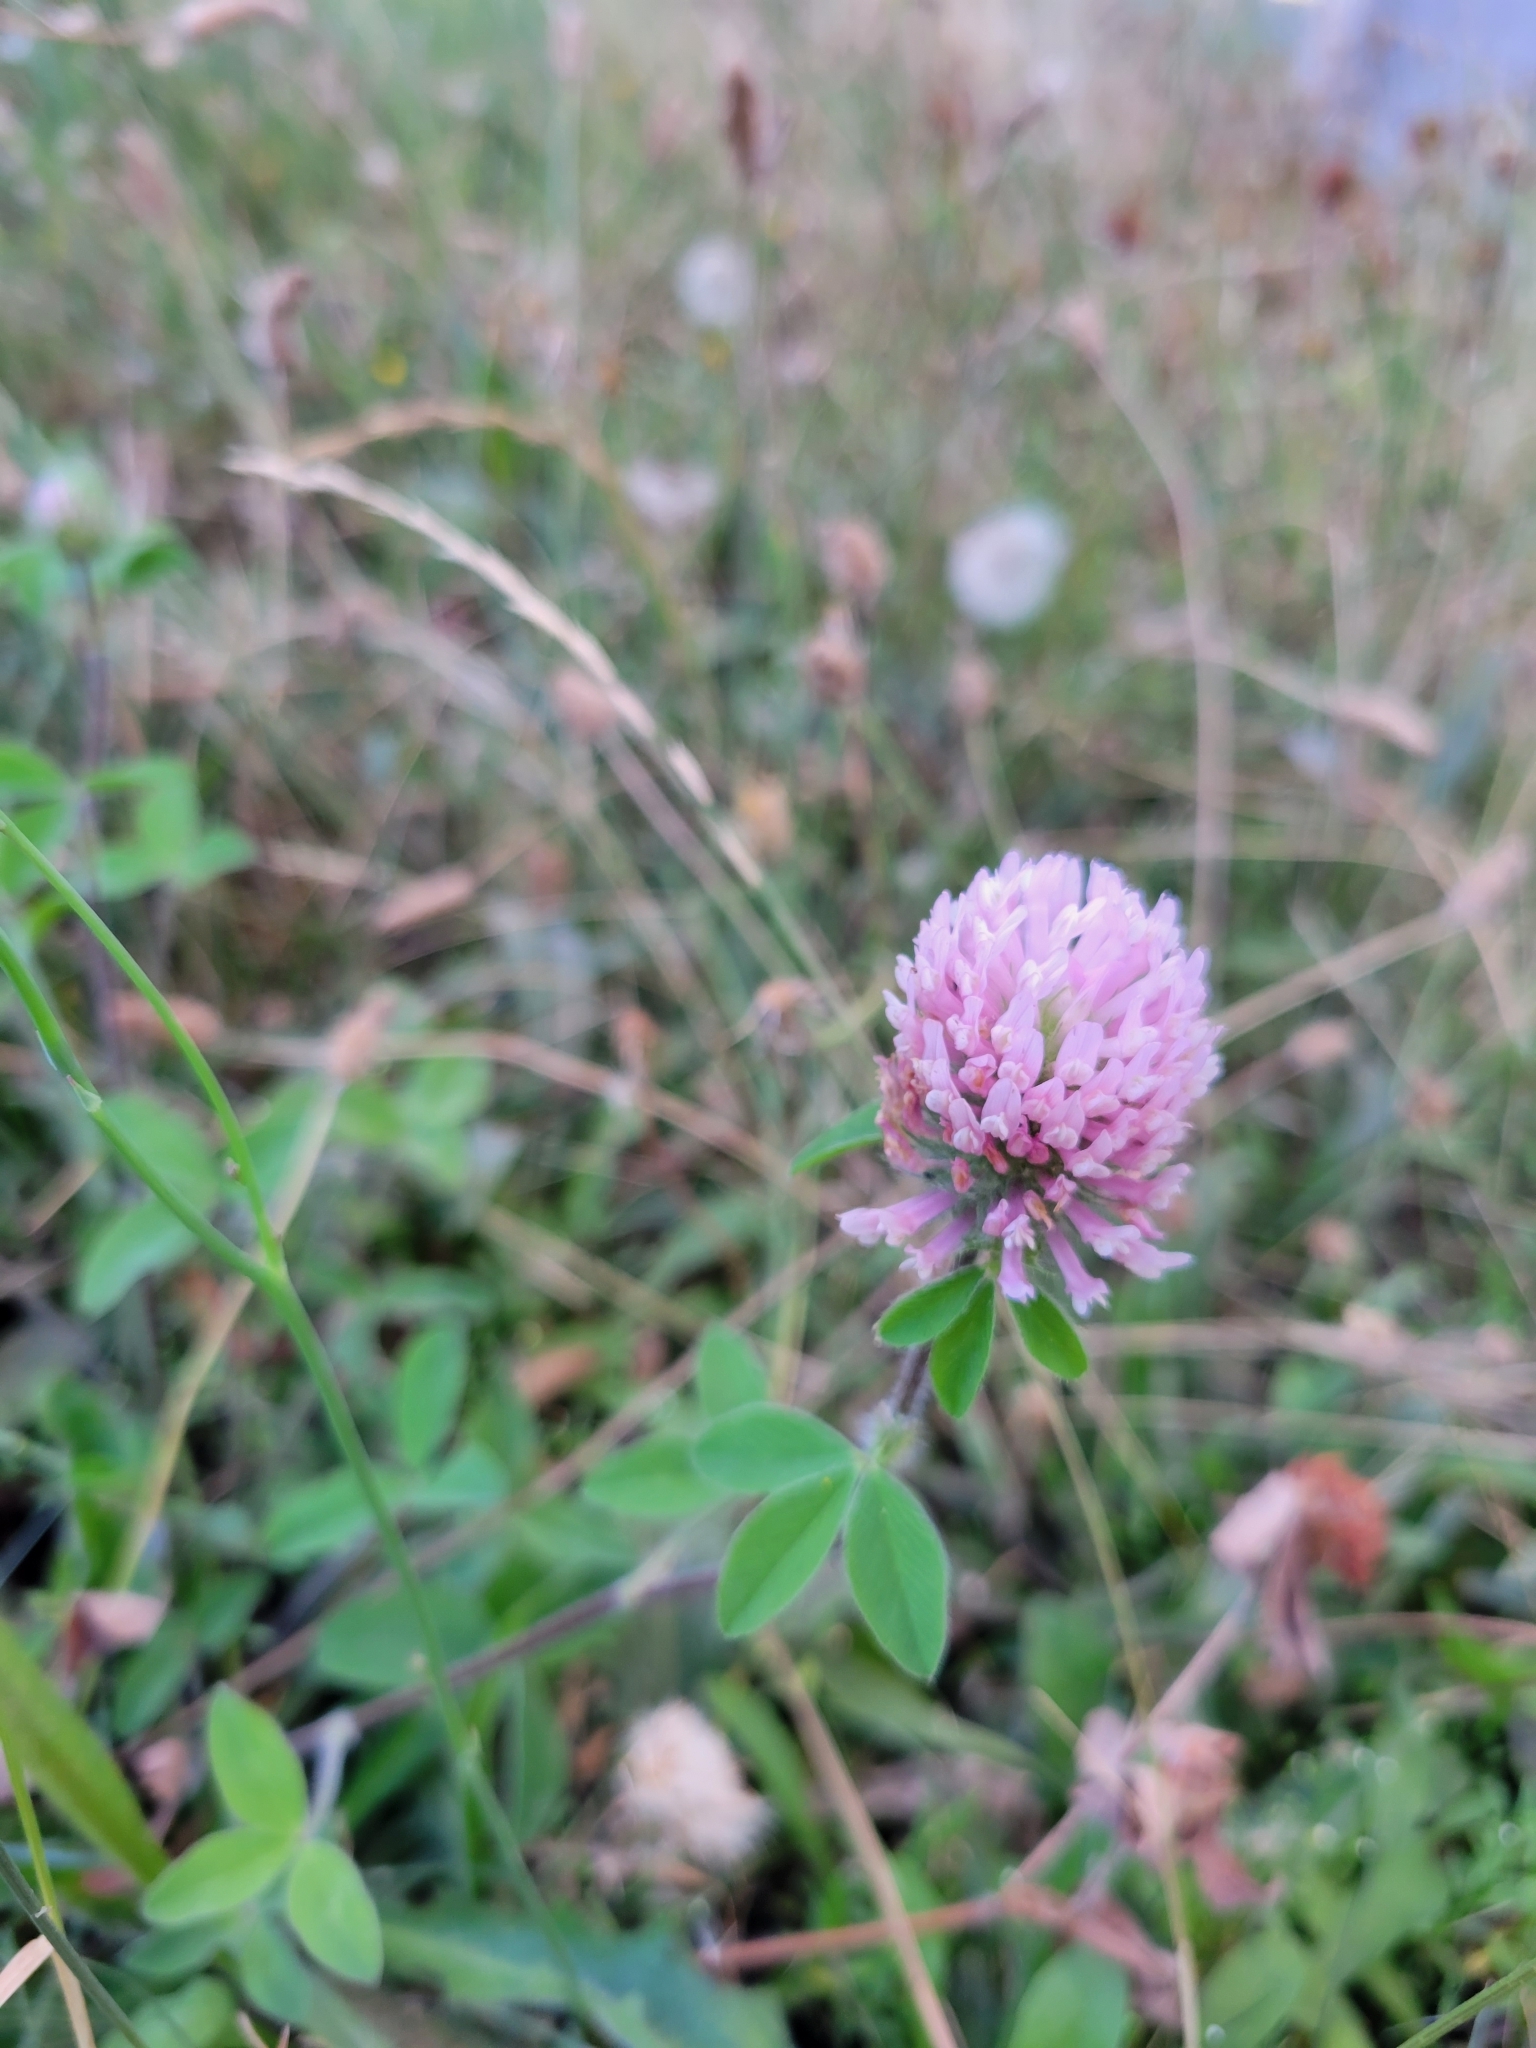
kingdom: Plantae
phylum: Tracheophyta
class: Magnoliopsida
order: Fabales
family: Fabaceae
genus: Trifolium
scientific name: Trifolium pratense
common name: Red clover
